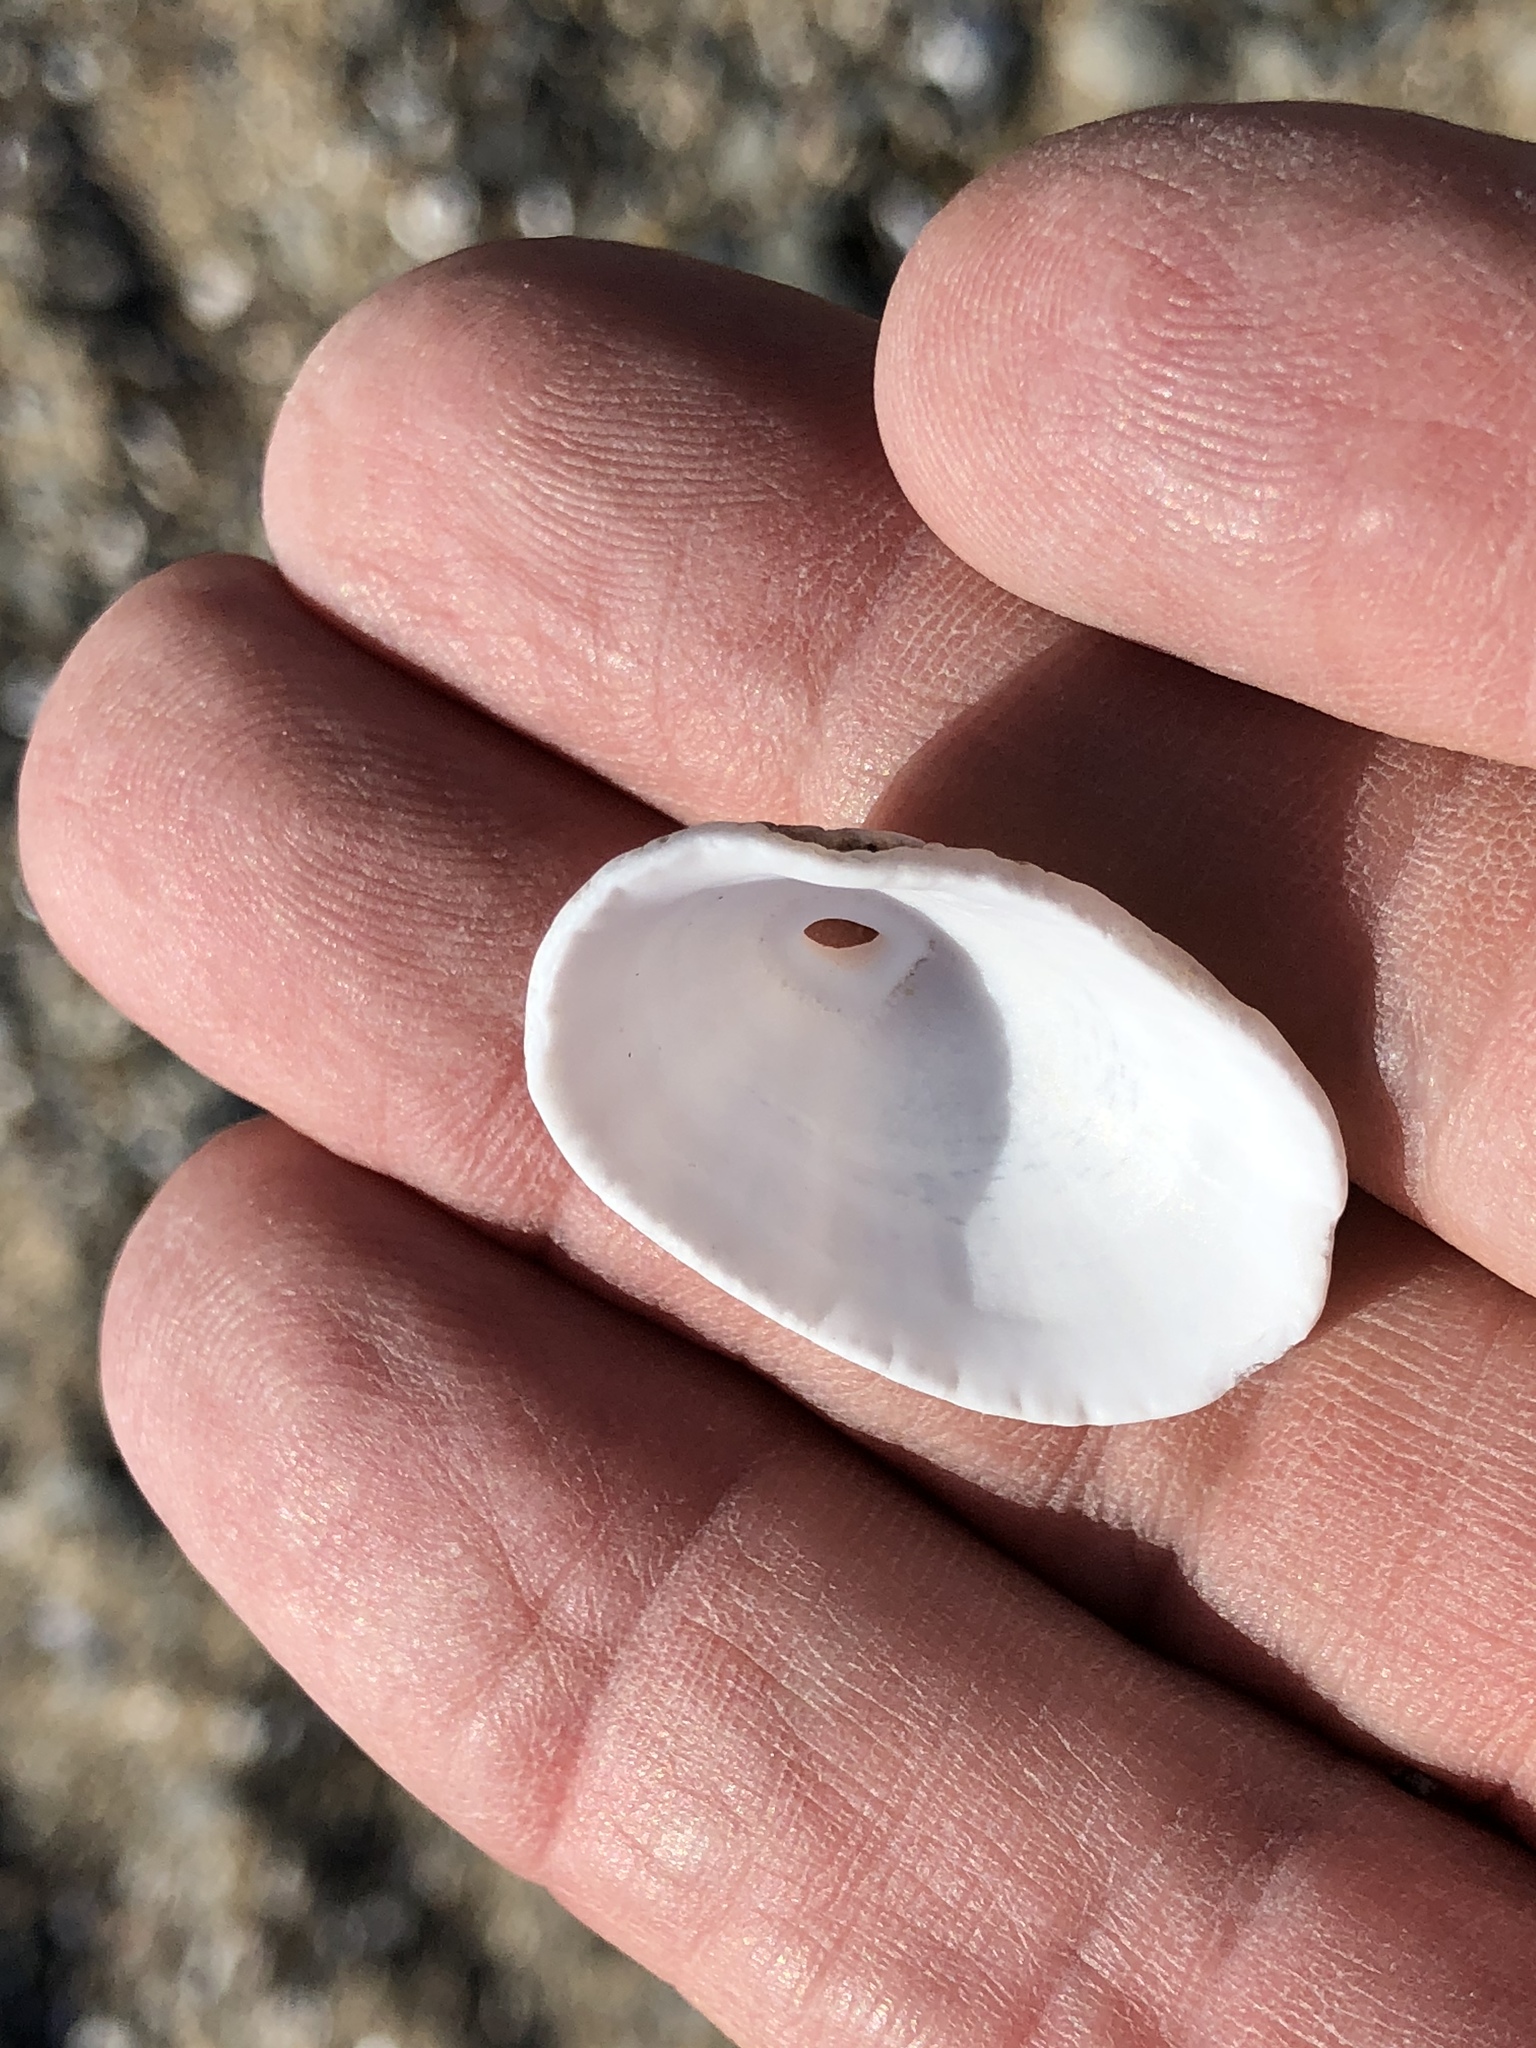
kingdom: Animalia
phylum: Mollusca
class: Gastropoda
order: Lepetellida
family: Fissurellidae
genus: Diodora
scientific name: Diodora aspera
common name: Rough keyhole limpet
